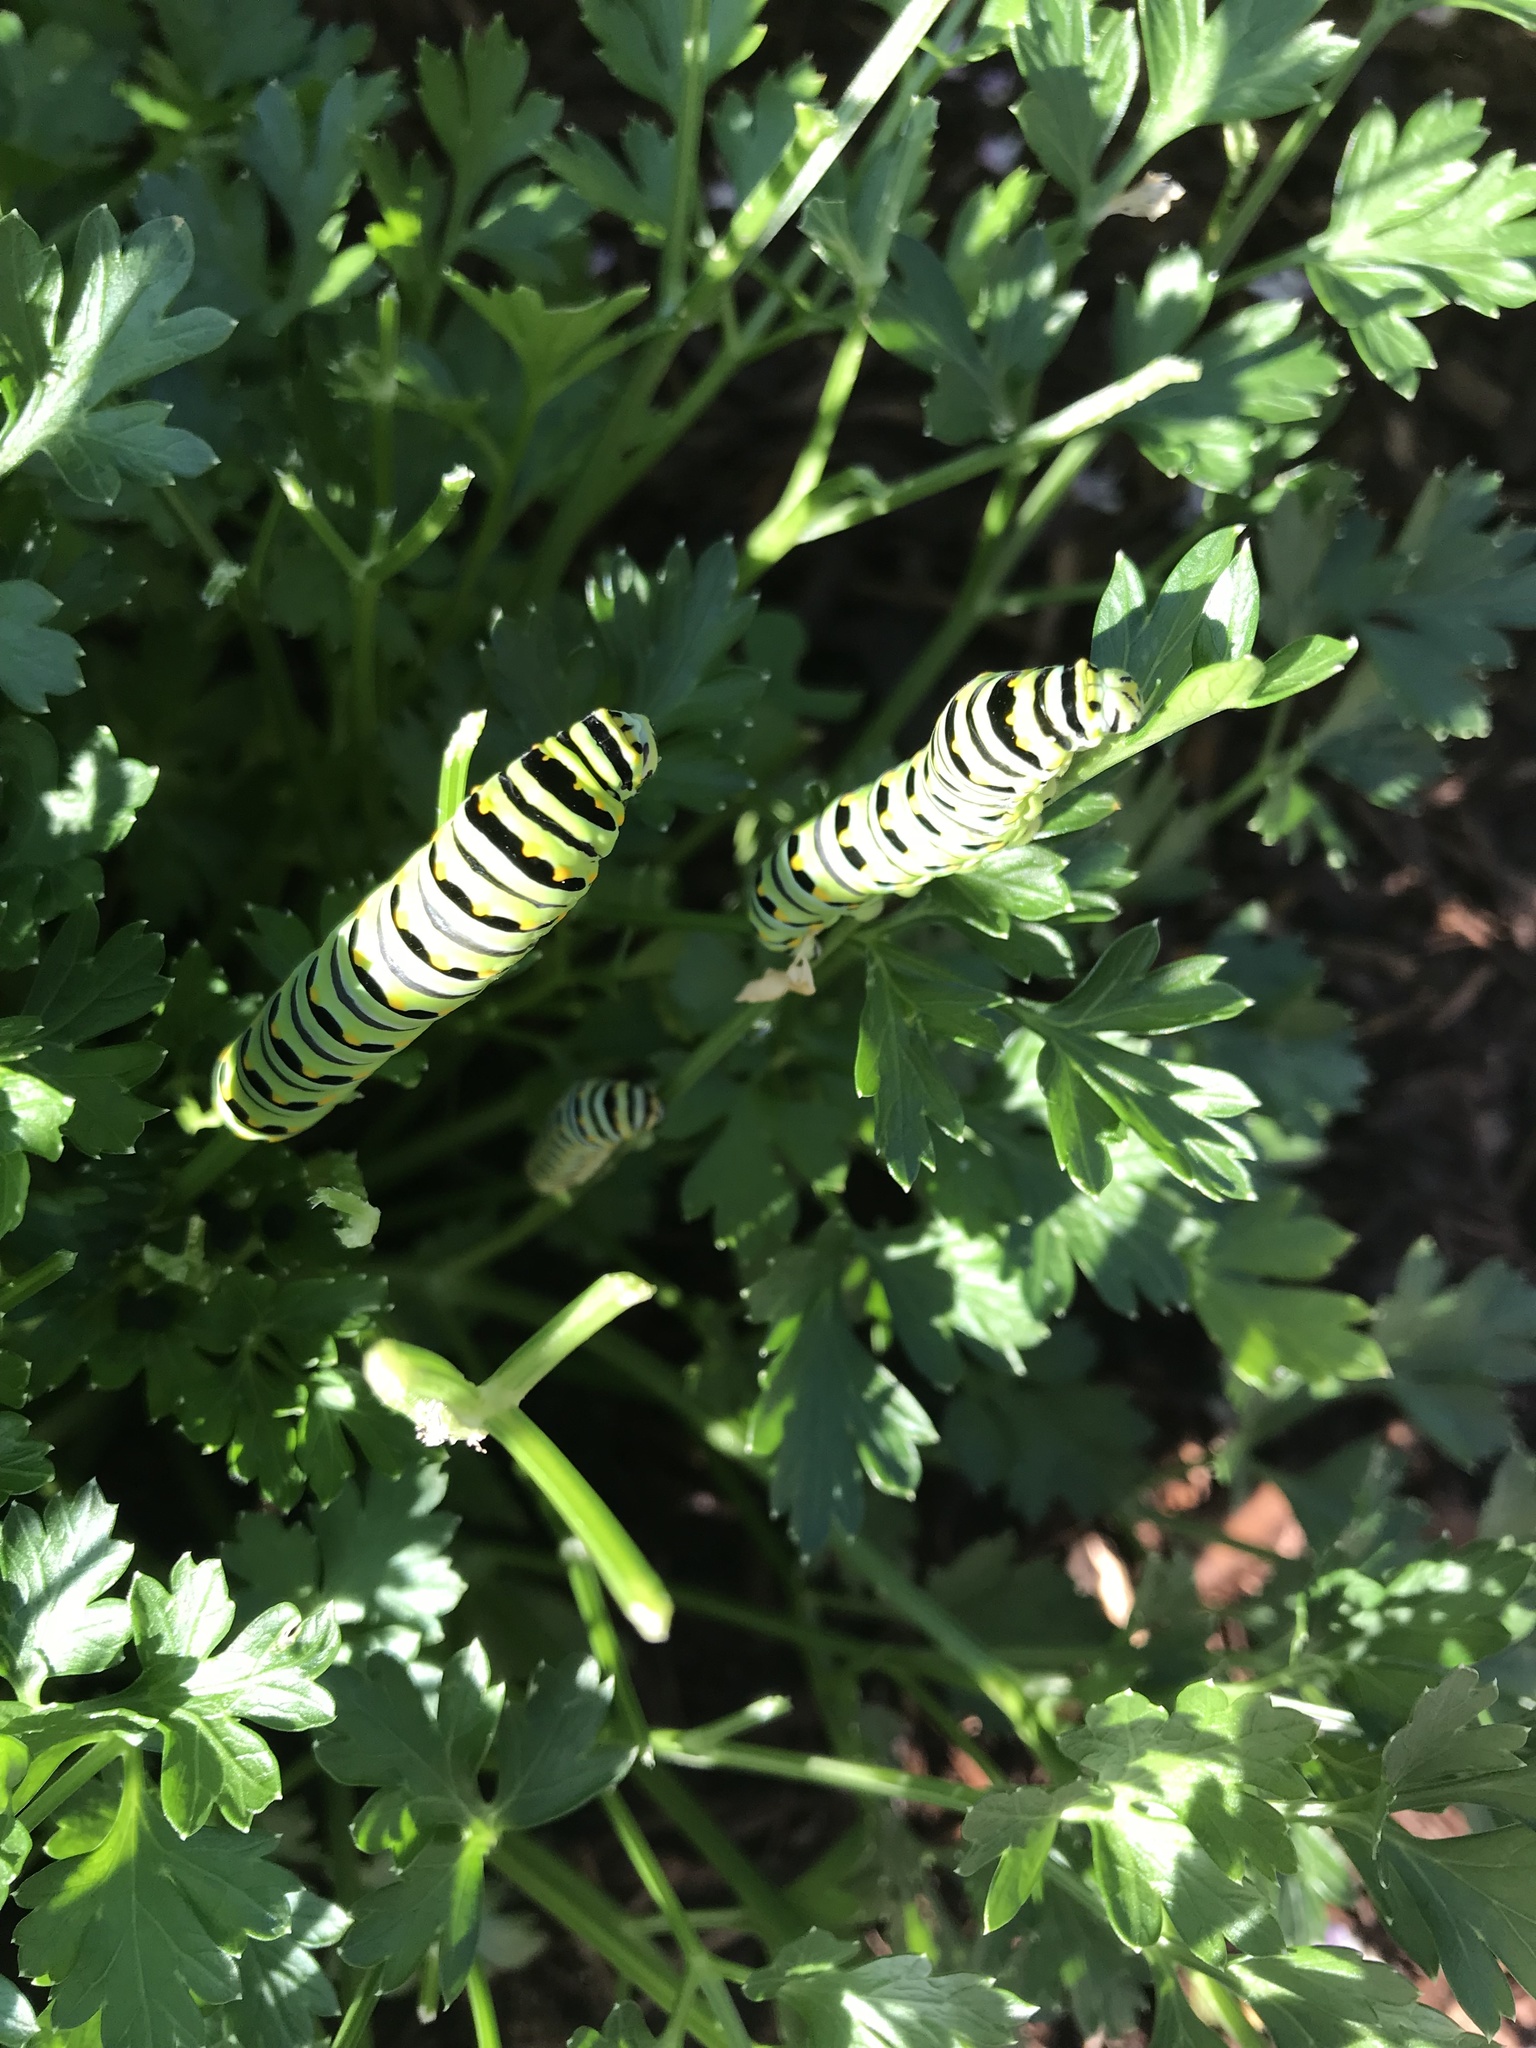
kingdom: Animalia
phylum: Arthropoda
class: Insecta
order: Lepidoptera
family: Papilionidae
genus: Papilio
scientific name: Papilio polyxenes
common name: Black swallowtail
